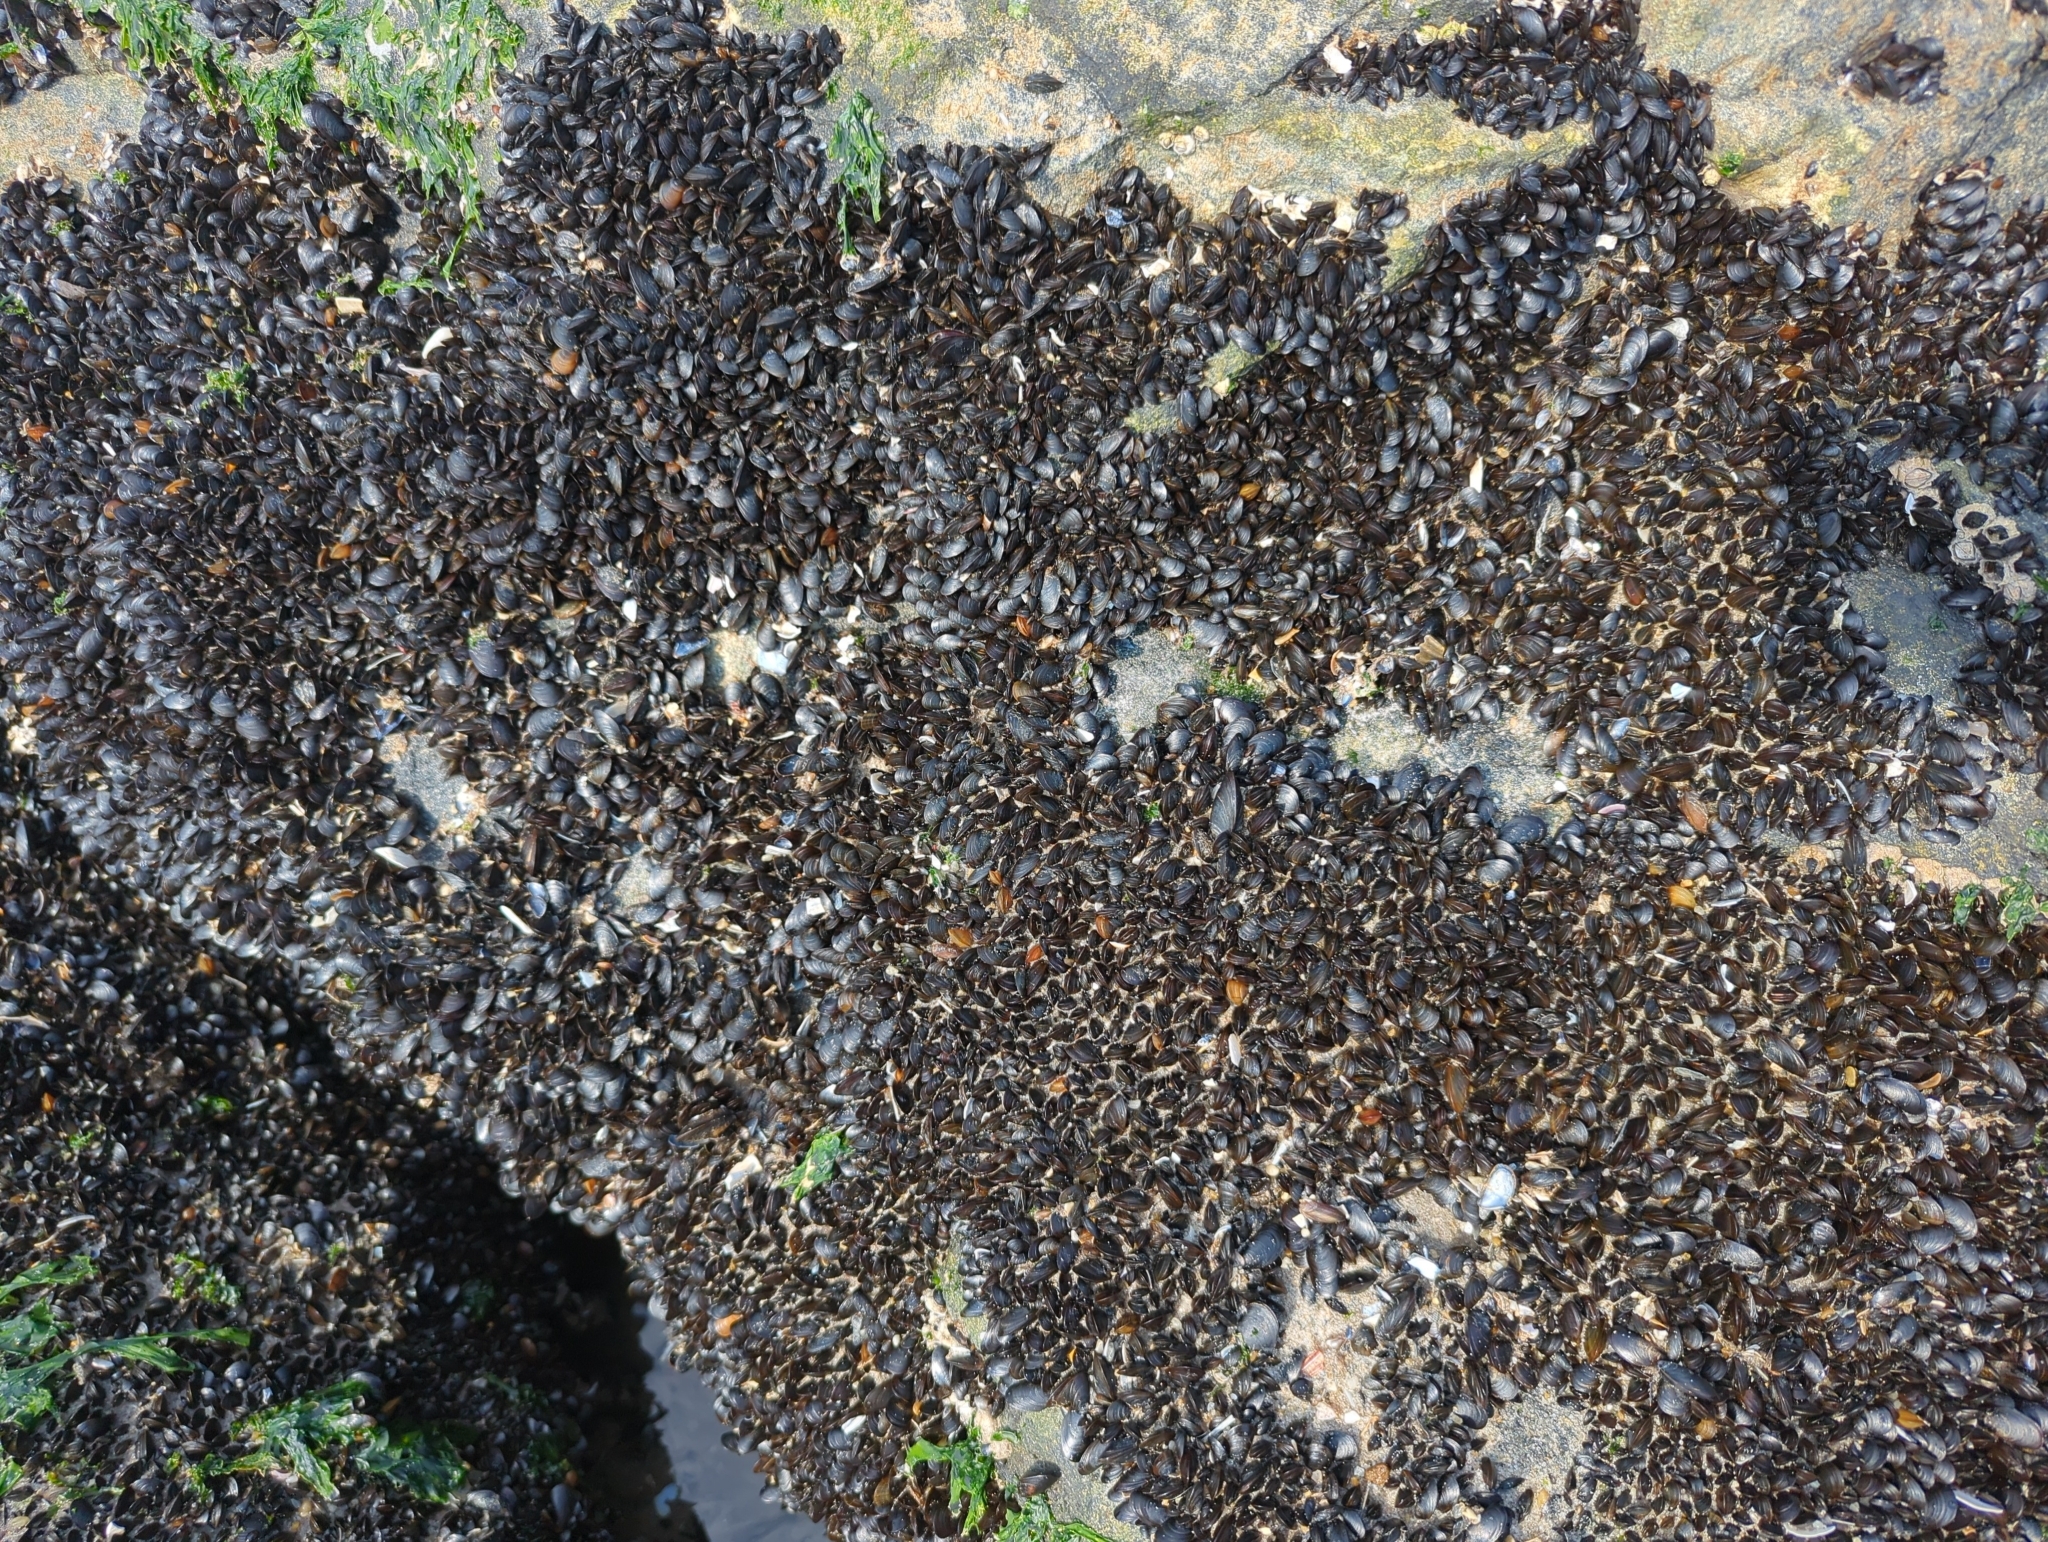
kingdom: Animalia
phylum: Mollusca
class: Bivalvia
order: Mytilida
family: Mytilidae
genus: Mytilus
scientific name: Mytilus edulis
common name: Blue mussel
